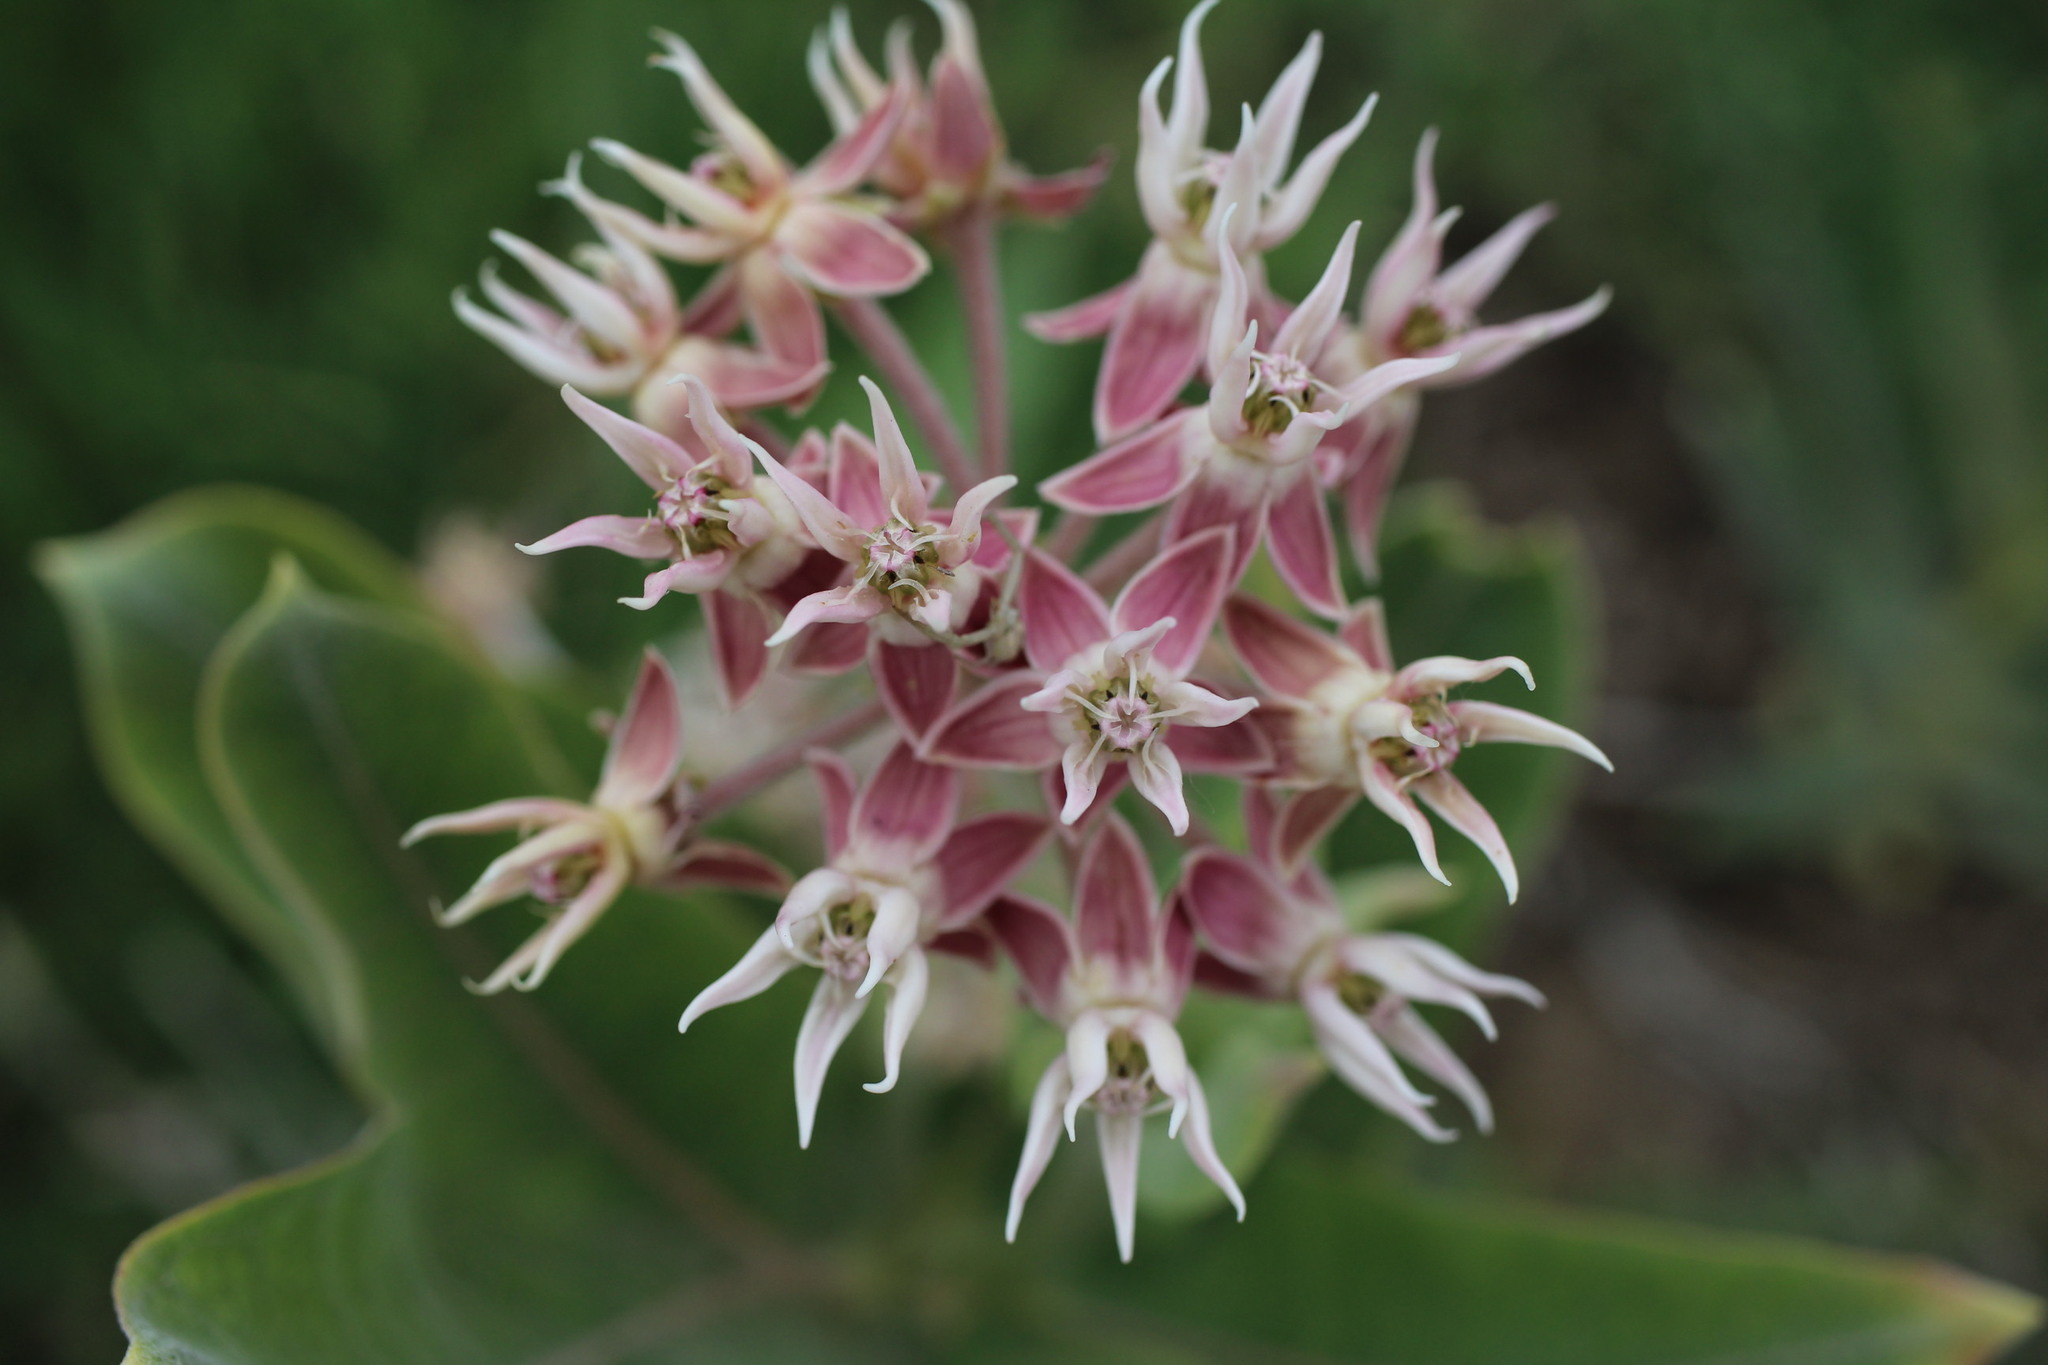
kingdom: Plantae
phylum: Tracheophyta
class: Magnoliopsida
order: Gentianales
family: Apocynaceae
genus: Asclepias
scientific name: Asclepias speciosa
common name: Showy milkweed
